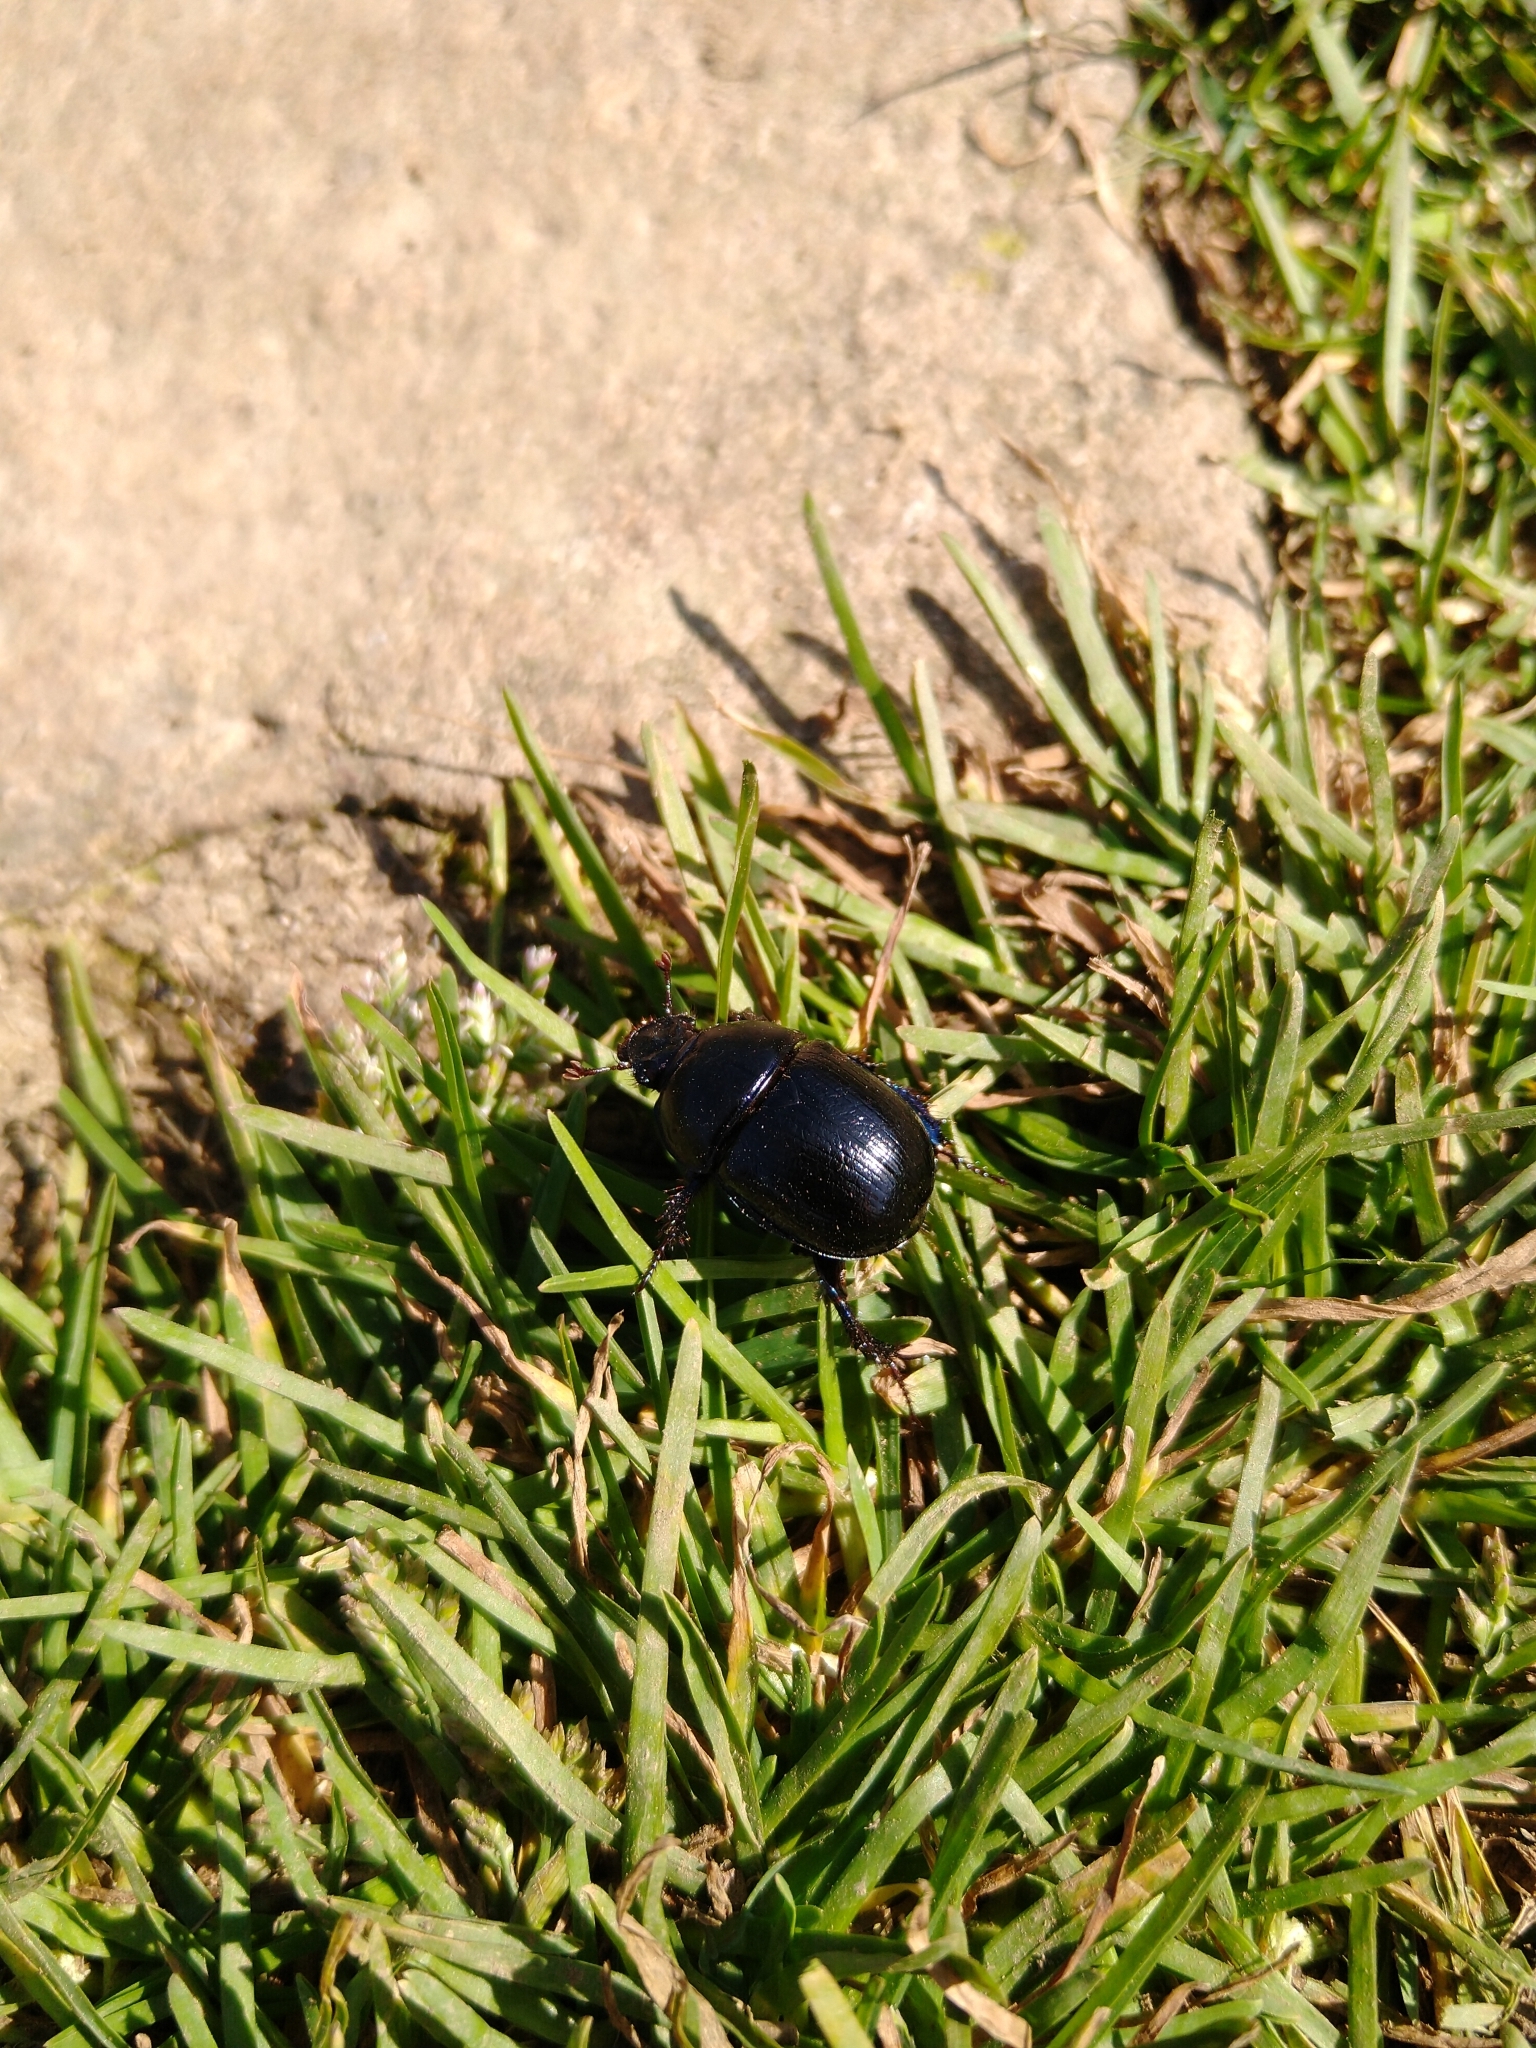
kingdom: Animalia
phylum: Arthropoda
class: Insecta
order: Coleoptera
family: Geotrupidae
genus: Anoplotrupes
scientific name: Anoplotrupes stercorosus
